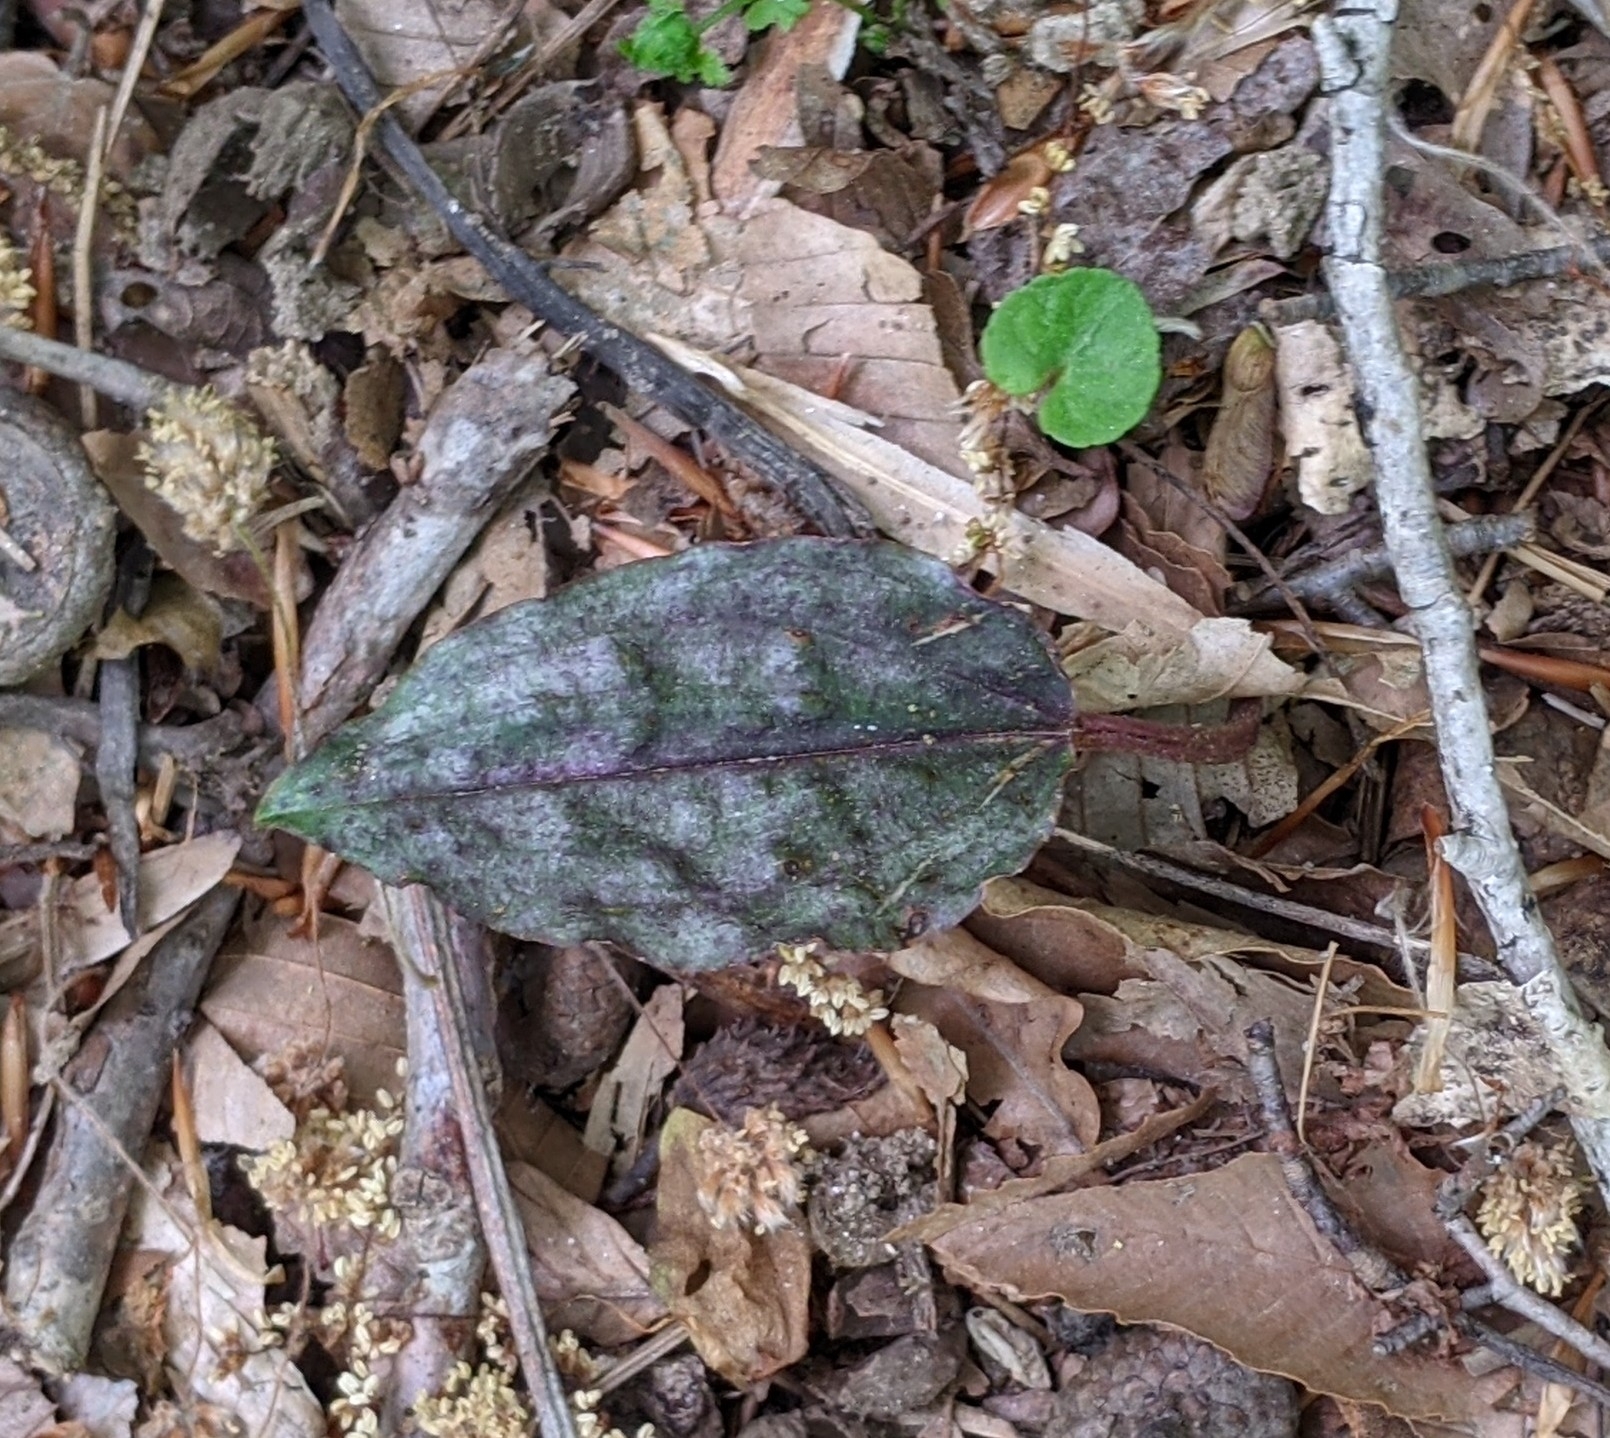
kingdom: Plantae
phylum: Tracheophyta
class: Liliopsida
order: Asparagales
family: Orchidaceae
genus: Tipularia
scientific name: Tipularia discolor
